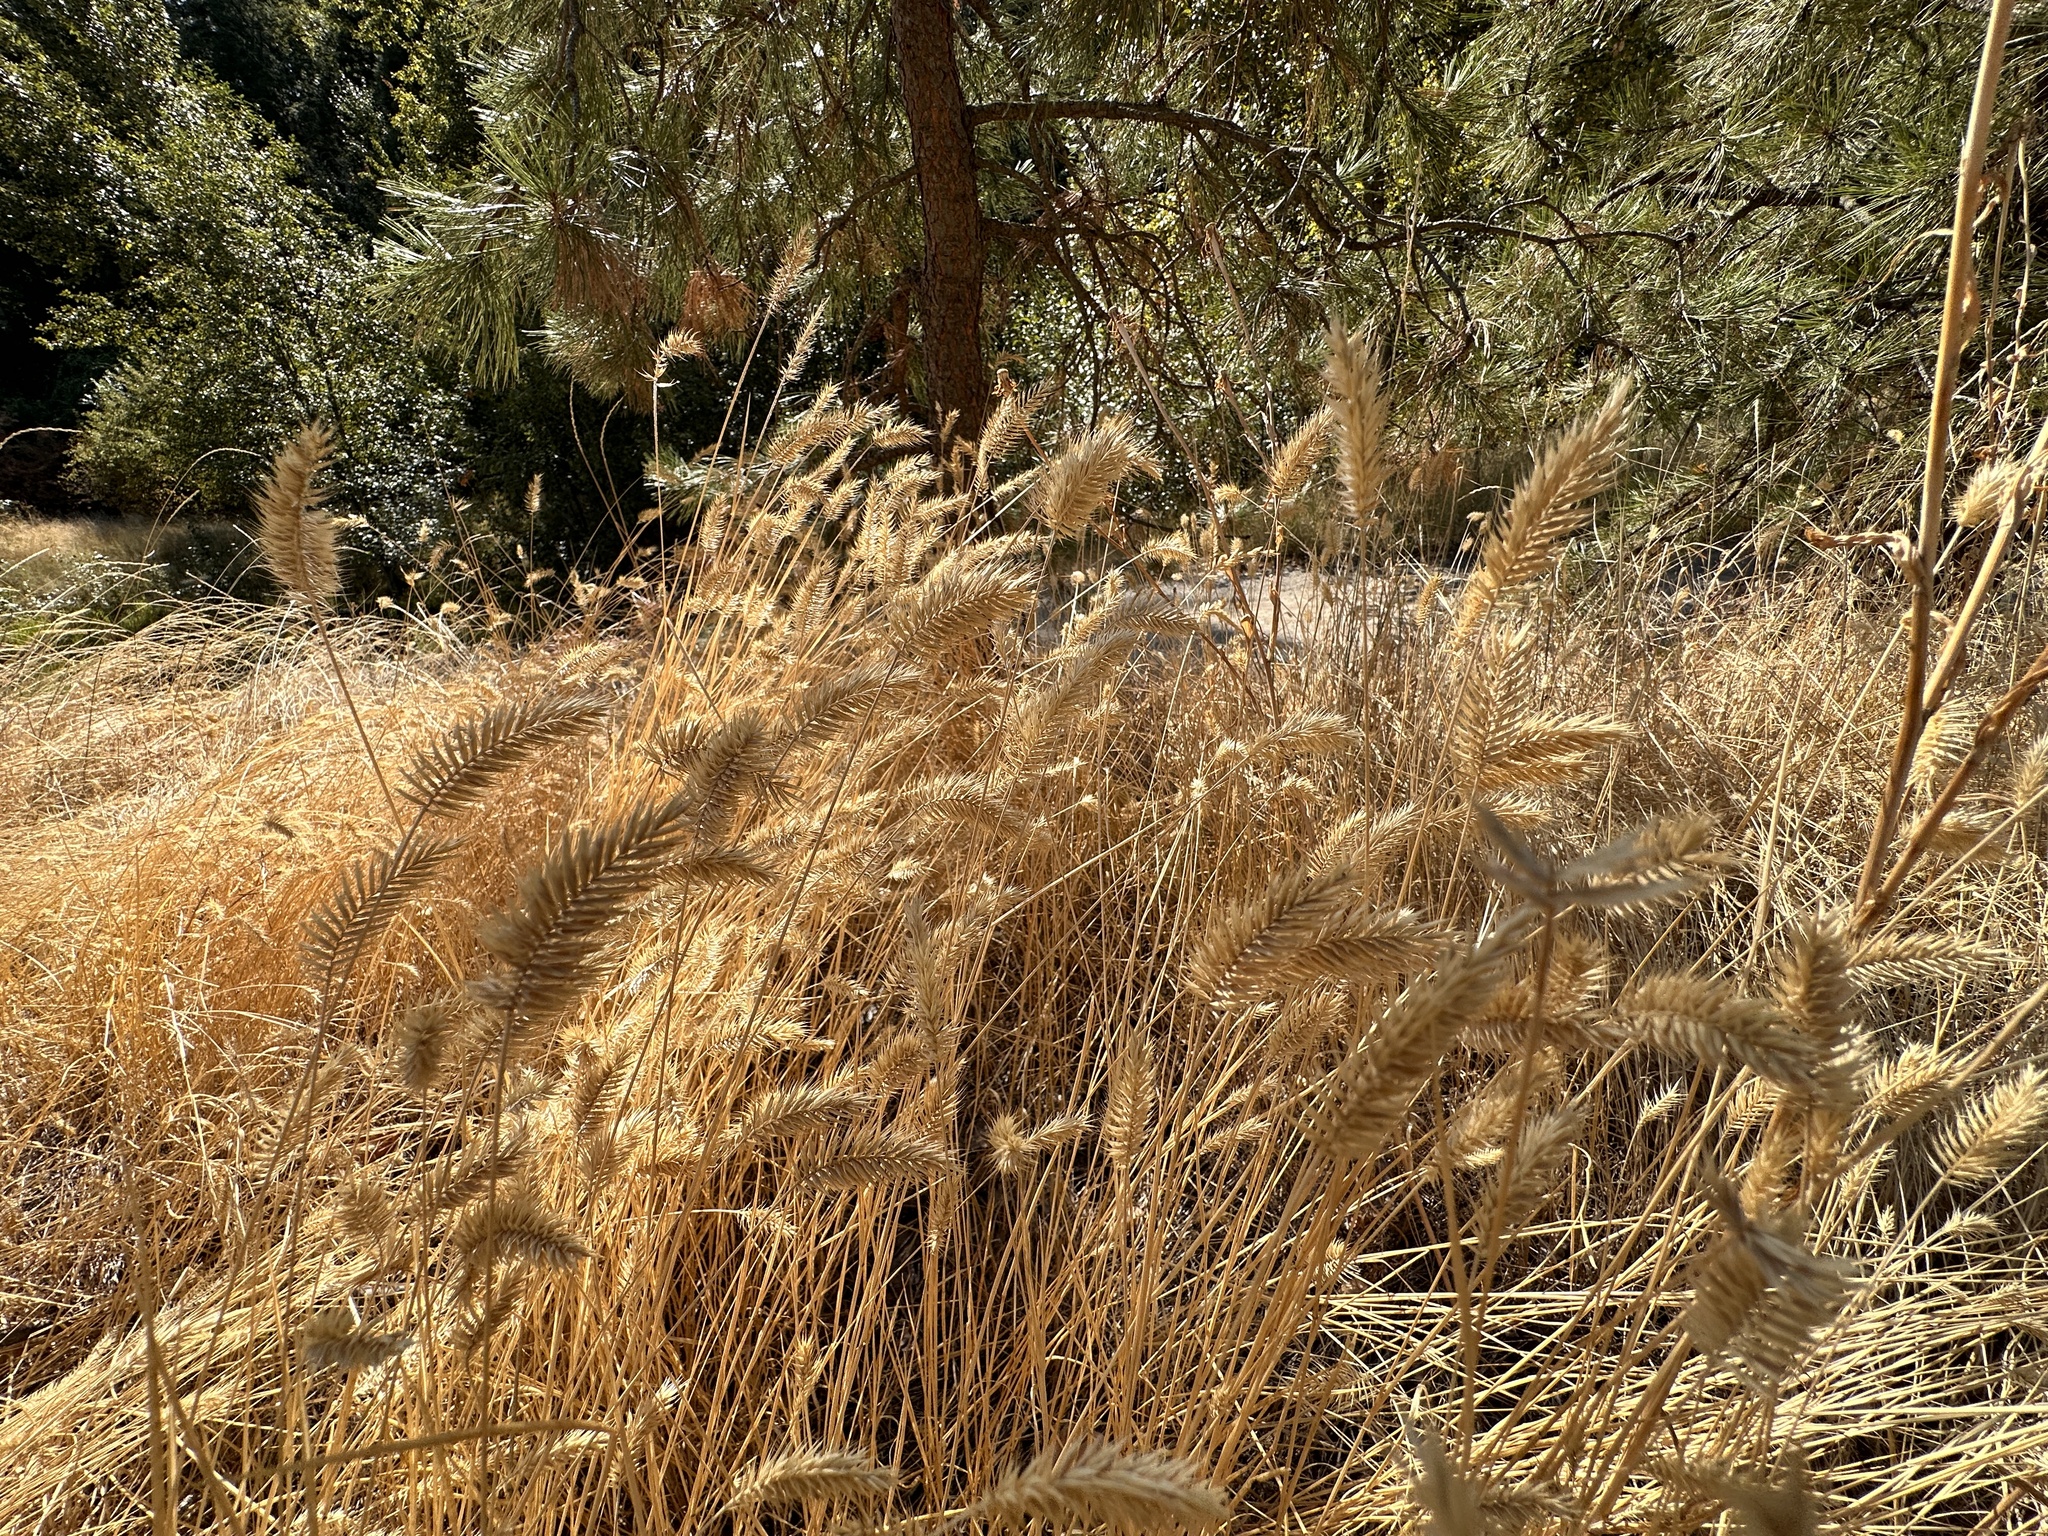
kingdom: Plantae
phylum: Tracheophyta
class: Liliopsida
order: Poales
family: Poaceae
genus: Agropyron
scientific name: Agropyron cristatum
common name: Crested wheatgrass
